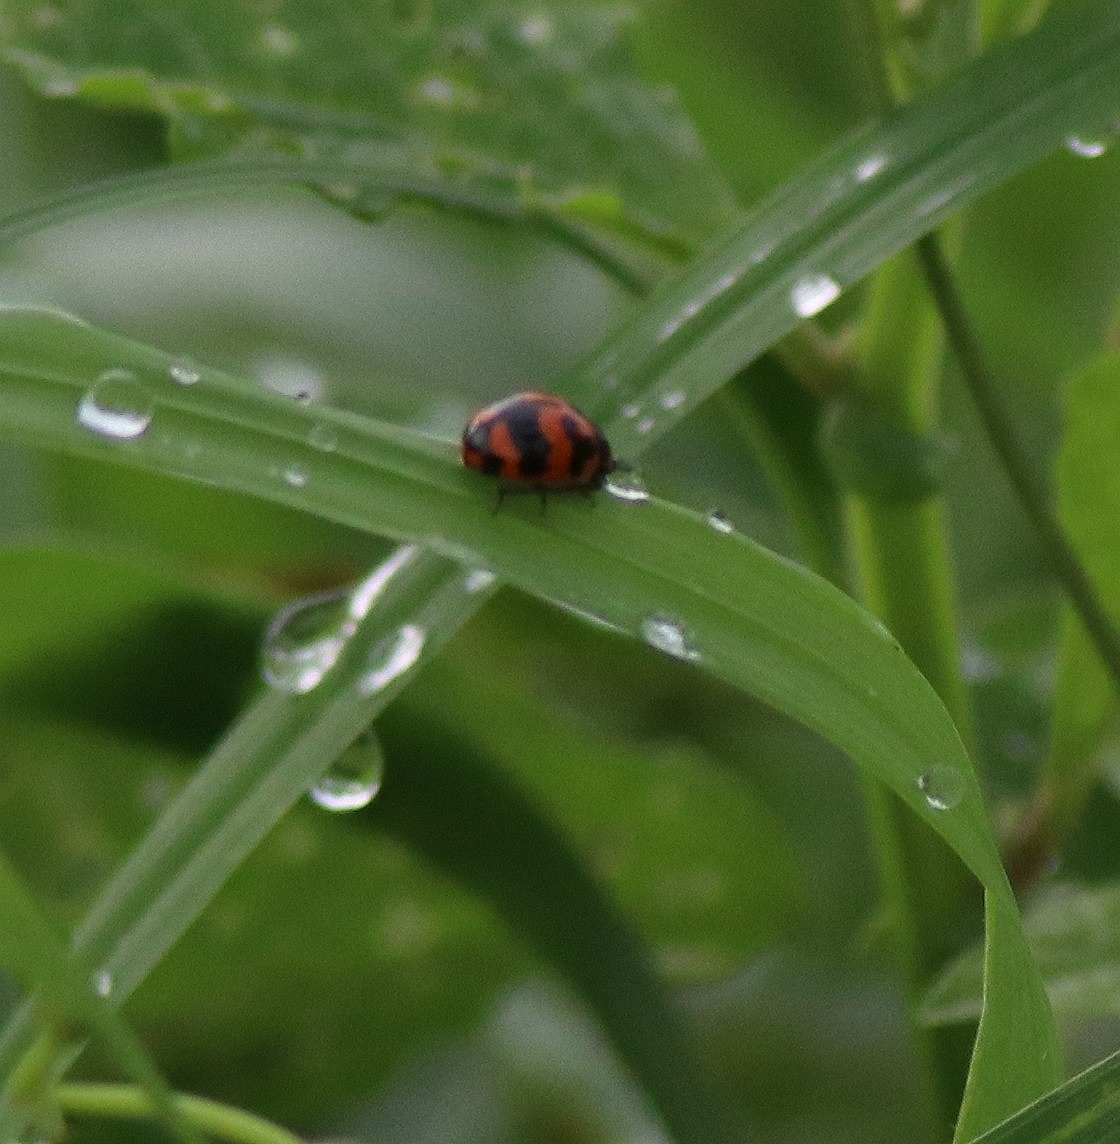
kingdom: Animalia
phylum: Arthropoda
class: Insecta
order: Coleoptera
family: Coccinellidae
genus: Coccinella
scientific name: Coccinella transversalis
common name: Transverse lady beetle
